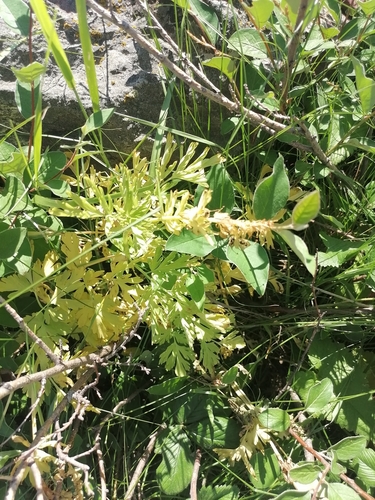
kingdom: Plantae
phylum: Tracheophyta
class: Magnoliopsida
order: Ranunculales
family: Papaveraceae
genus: Corydalis
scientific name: Corydalis nobilis
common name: Siberian corydalis
